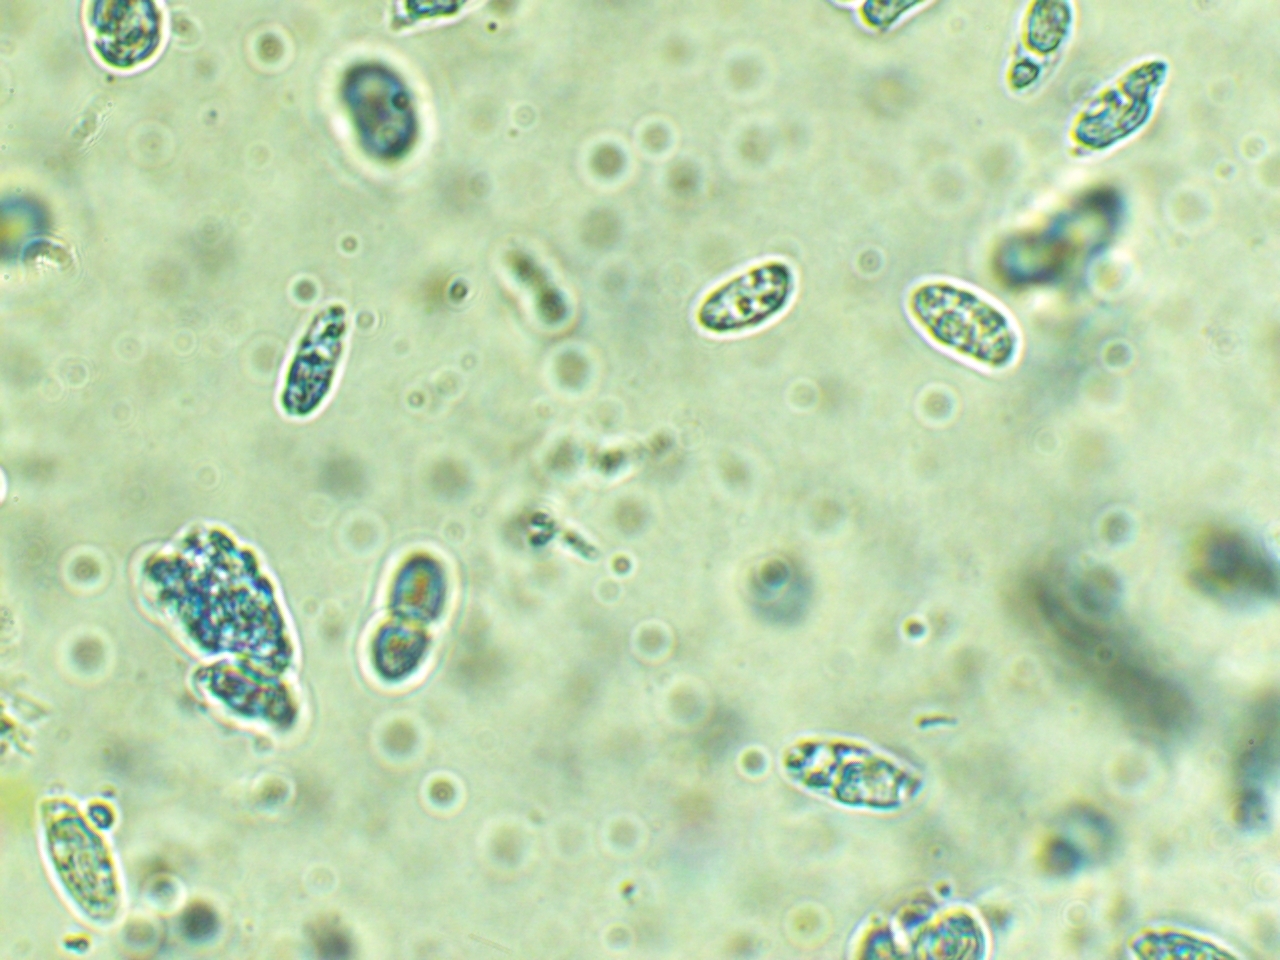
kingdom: Fungi
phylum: Basidiomycota
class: Agaricomycetes
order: Polyporales
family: Polyporaceae
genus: Cerioporus
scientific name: Cerioporus squamosus
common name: Dryad's saddle
